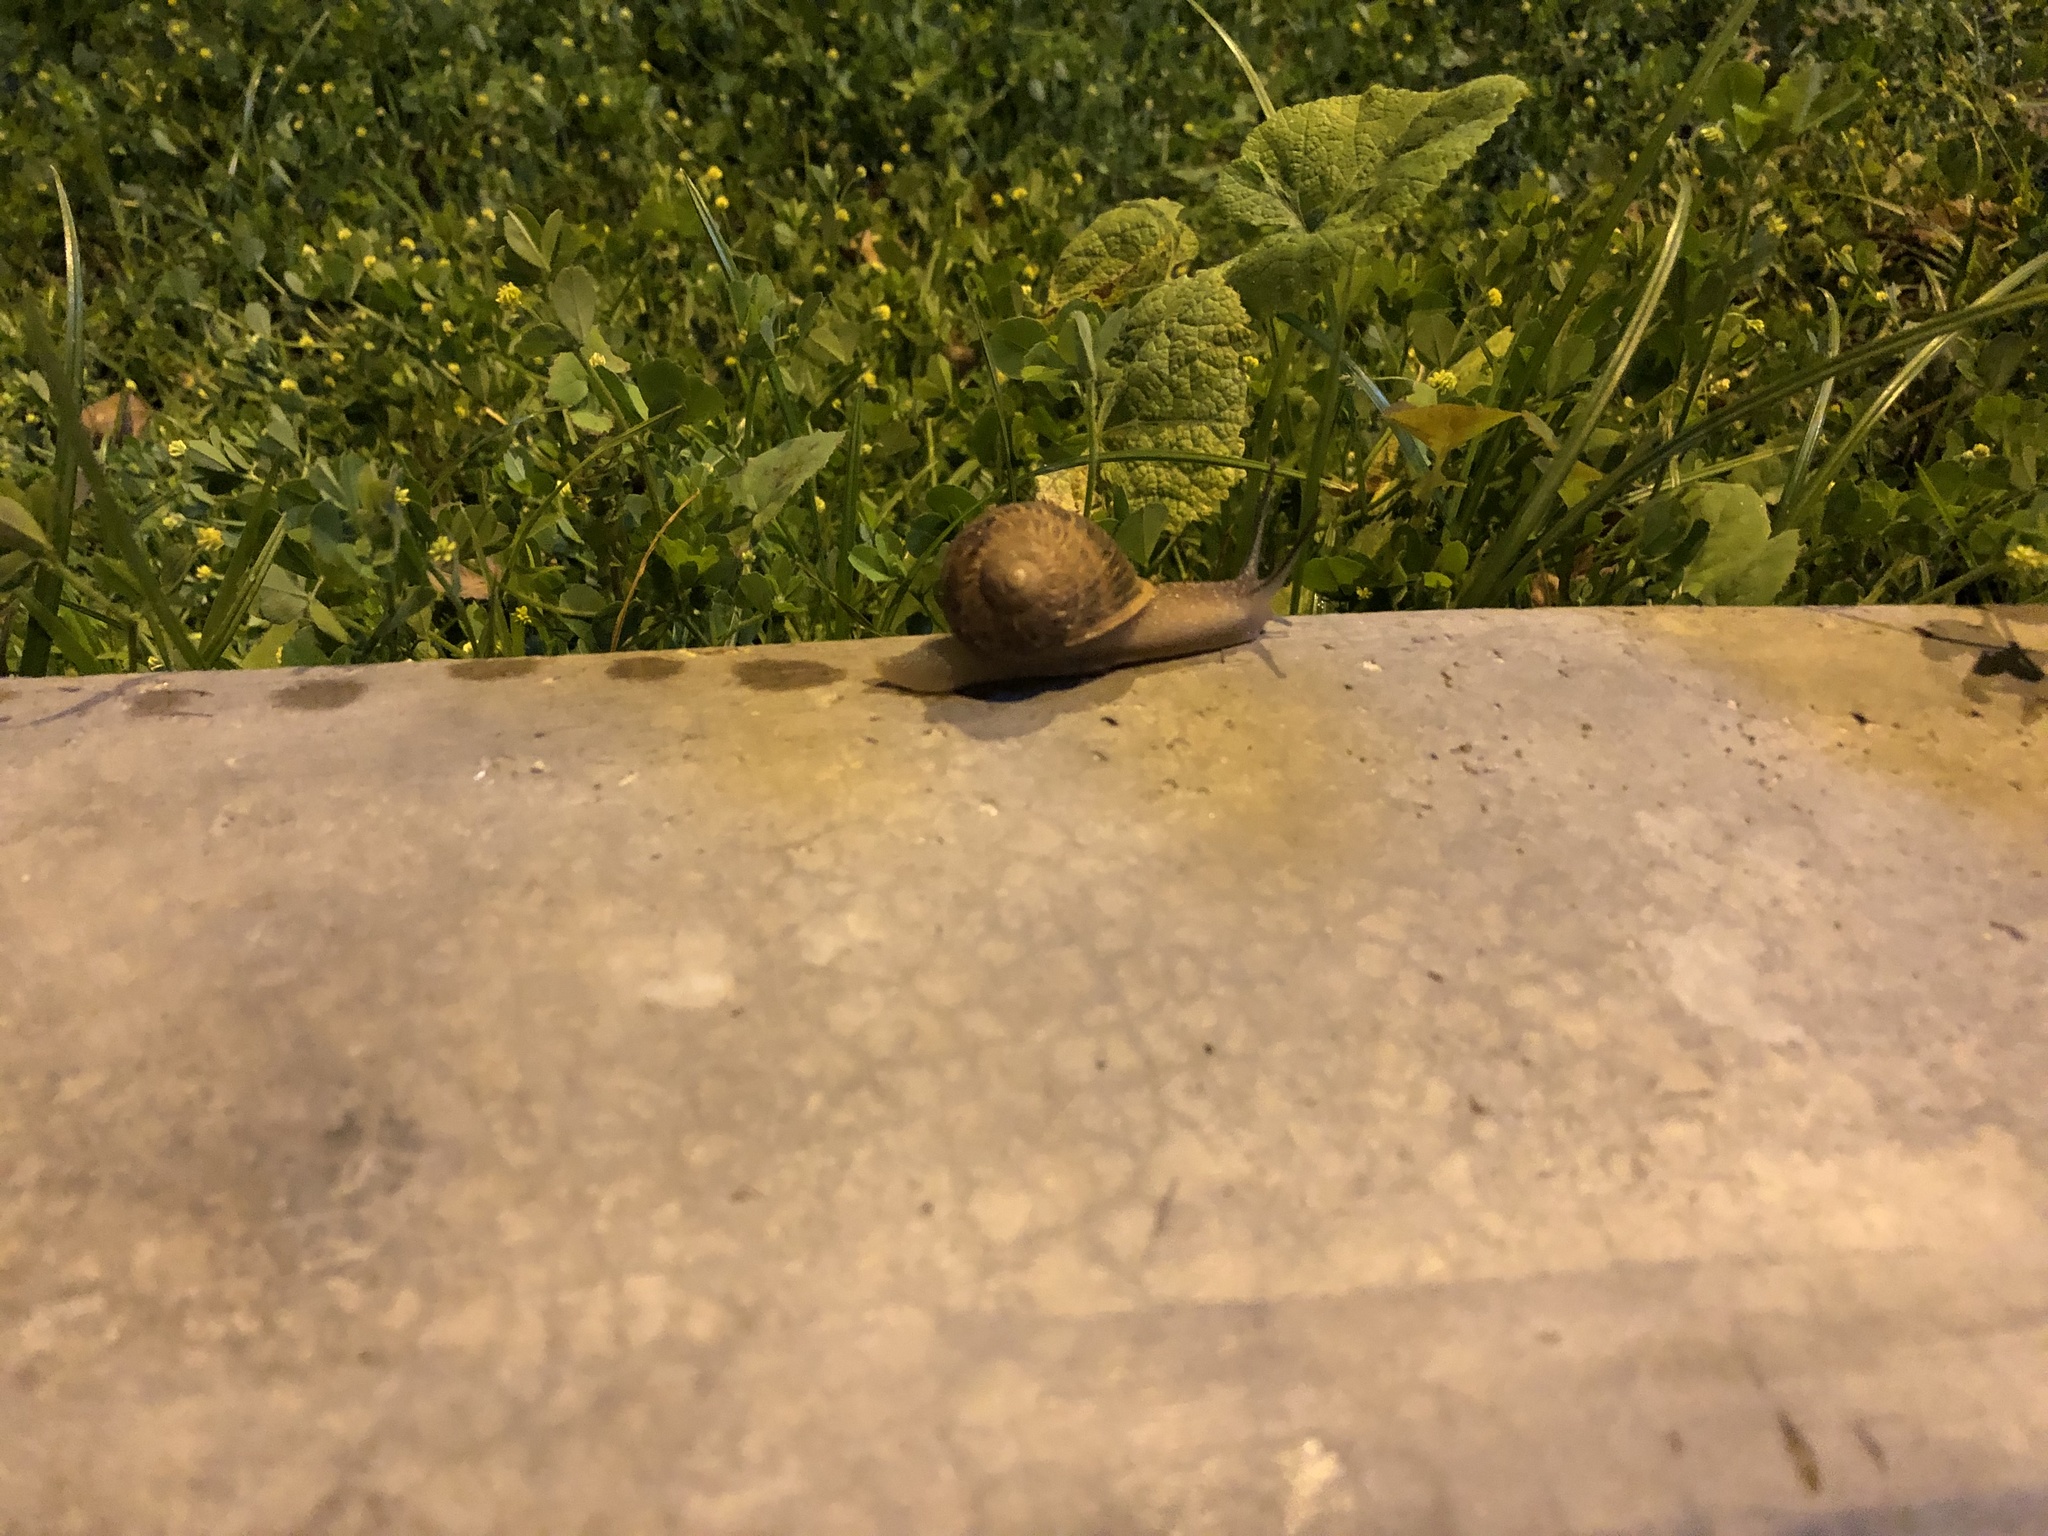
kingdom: Animalia
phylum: Mollusca
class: Gastropoda
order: Stylommatophora
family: Helicidae
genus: Cornu
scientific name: Cornu aspersum
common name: Brown garden snail
